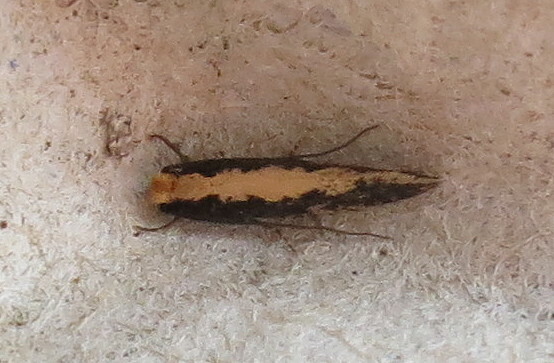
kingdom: Animalia
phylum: Arthropoda
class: Insecta
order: Lepidoptera
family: Tineidae
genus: Monopis
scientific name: Monopis crocicapitella
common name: Moth
